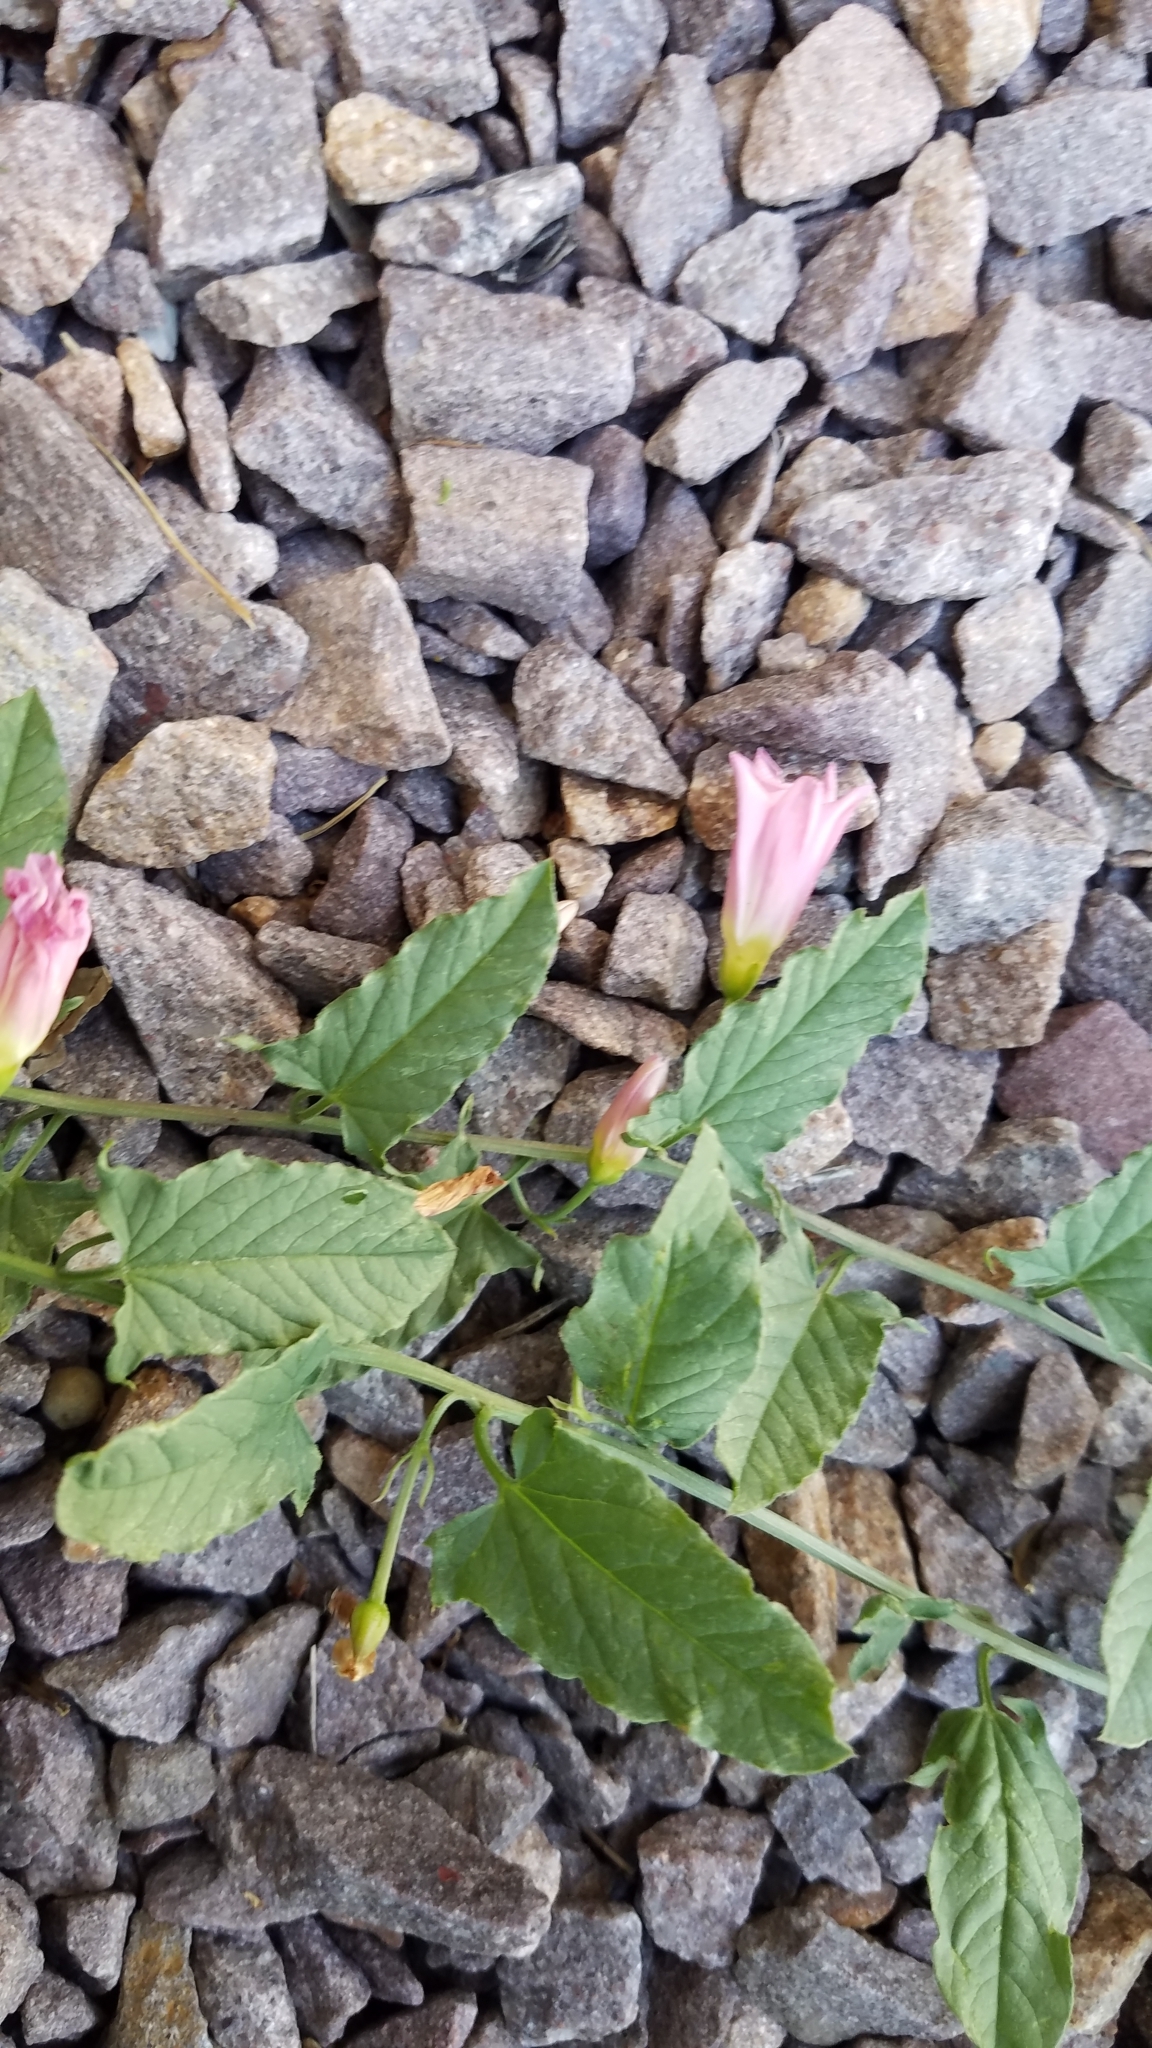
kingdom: Plantae
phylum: Tracheophyta
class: Magnoliopsida
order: Solanales
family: Convolvulaceae
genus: Convolvulus
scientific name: Convolvulus arvensis
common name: Field bindweed
